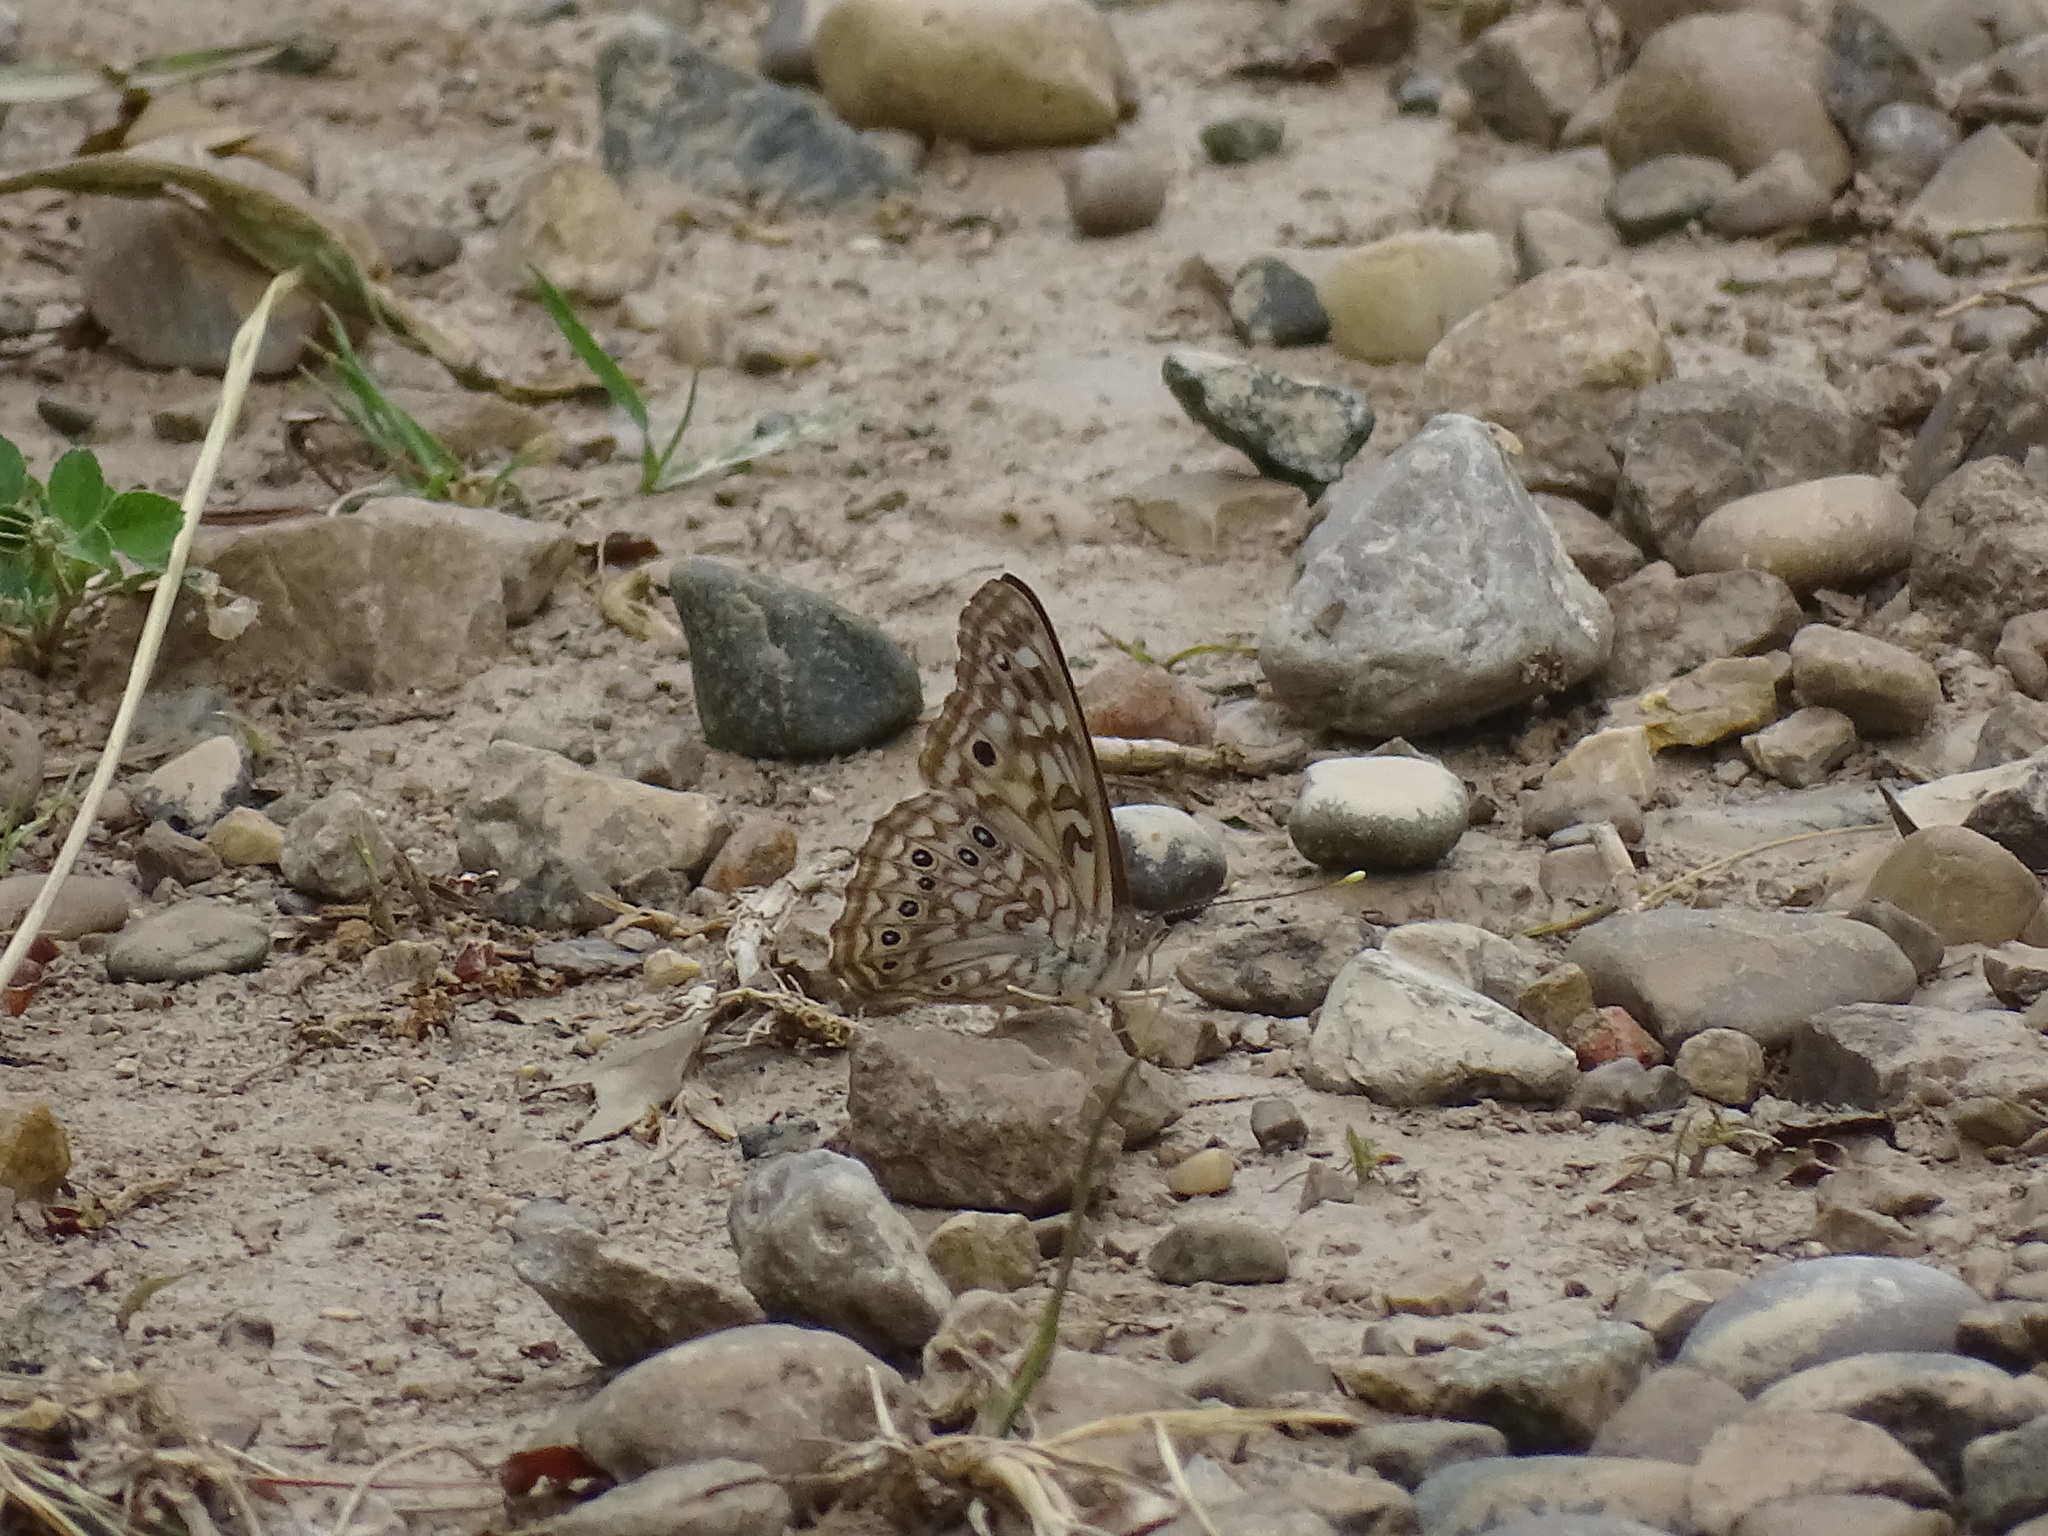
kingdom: Animalia
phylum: Arthropoda
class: Insecta
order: Lepidoptera
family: Nymphalidae
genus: Asterocampa
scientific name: Asterocampa celtis
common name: Hackberry emperor
